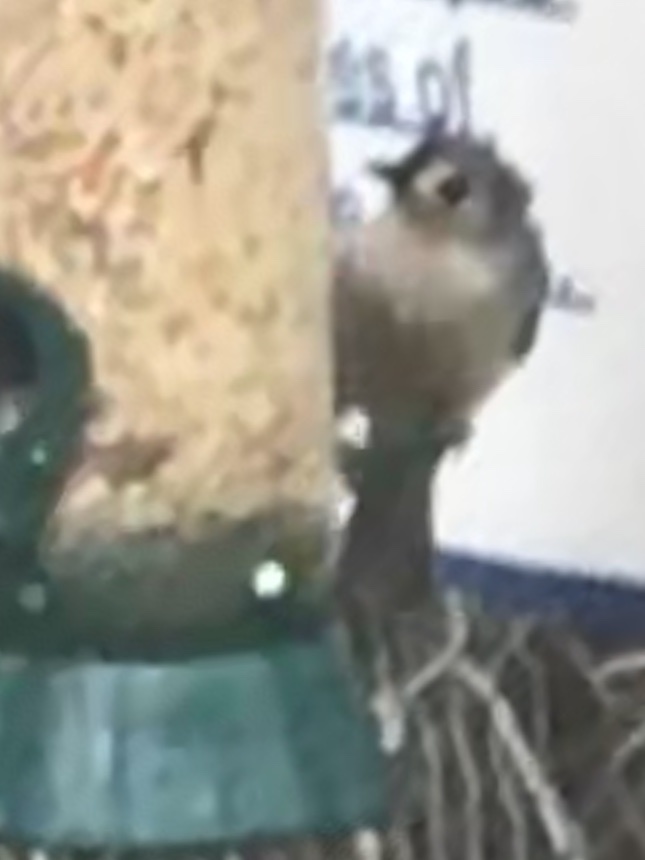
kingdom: Animalia
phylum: Chordata
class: Aves
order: Passeriformes
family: Paridae
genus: Baeolophus
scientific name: Baeolophus bicolor
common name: Tufted titmouse
